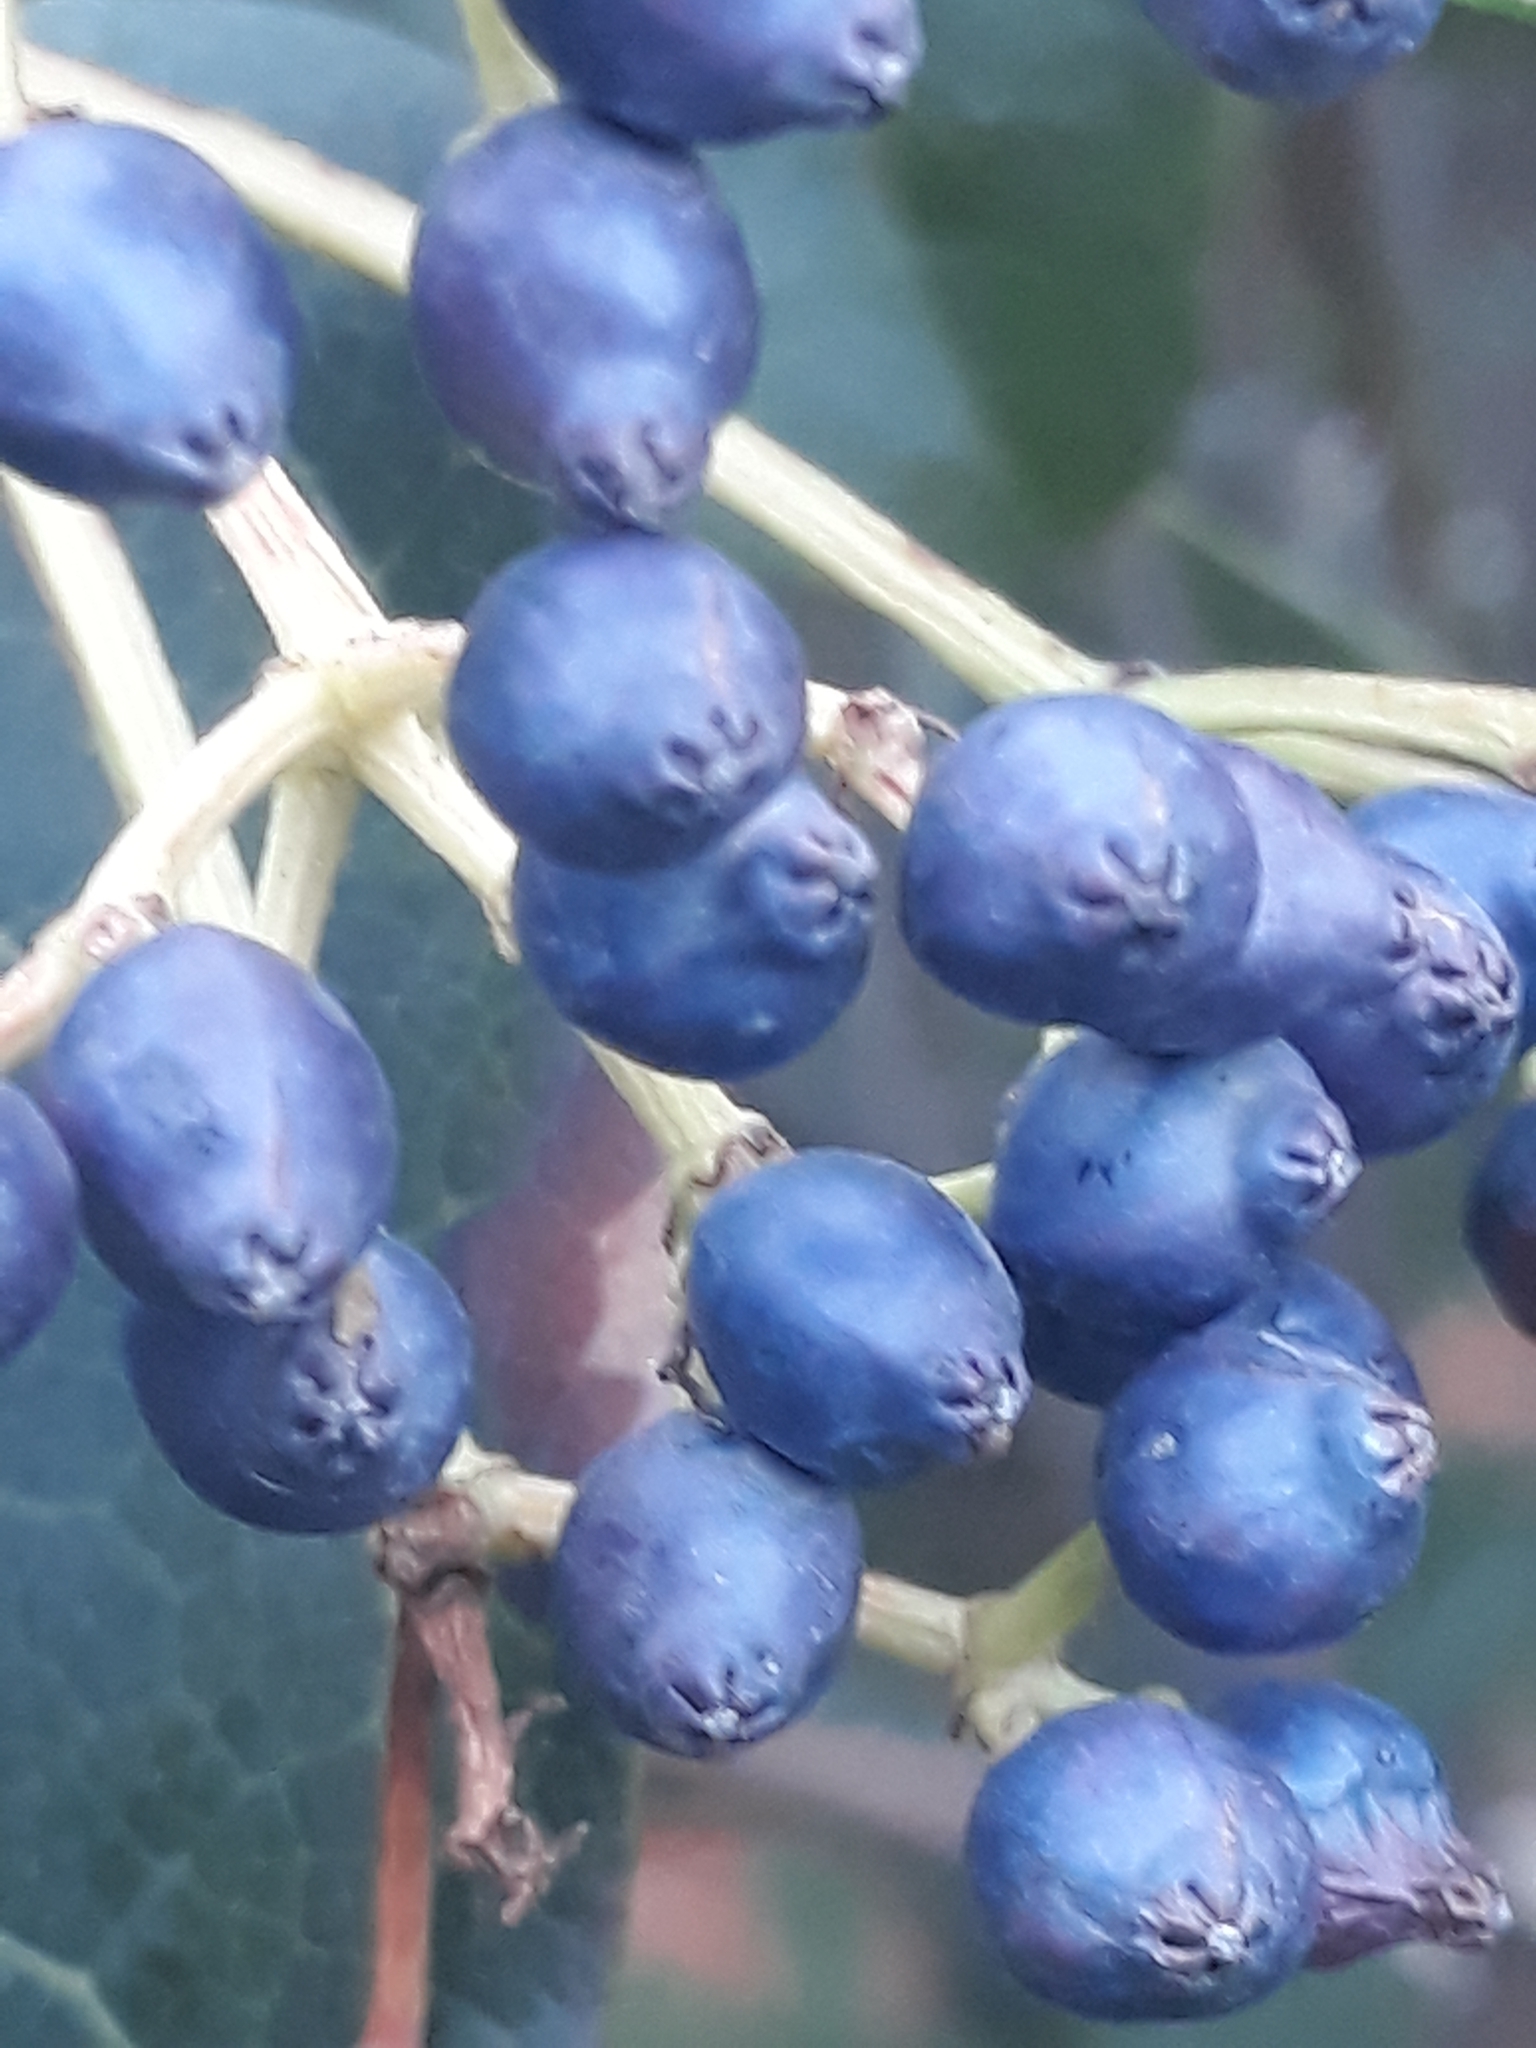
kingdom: Plantae
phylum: Tracheophyta
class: Magnoliopsida
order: Dipsacales
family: Viburnaceae
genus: Viburnum
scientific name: Viburnum tinus
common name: Laurustinus
